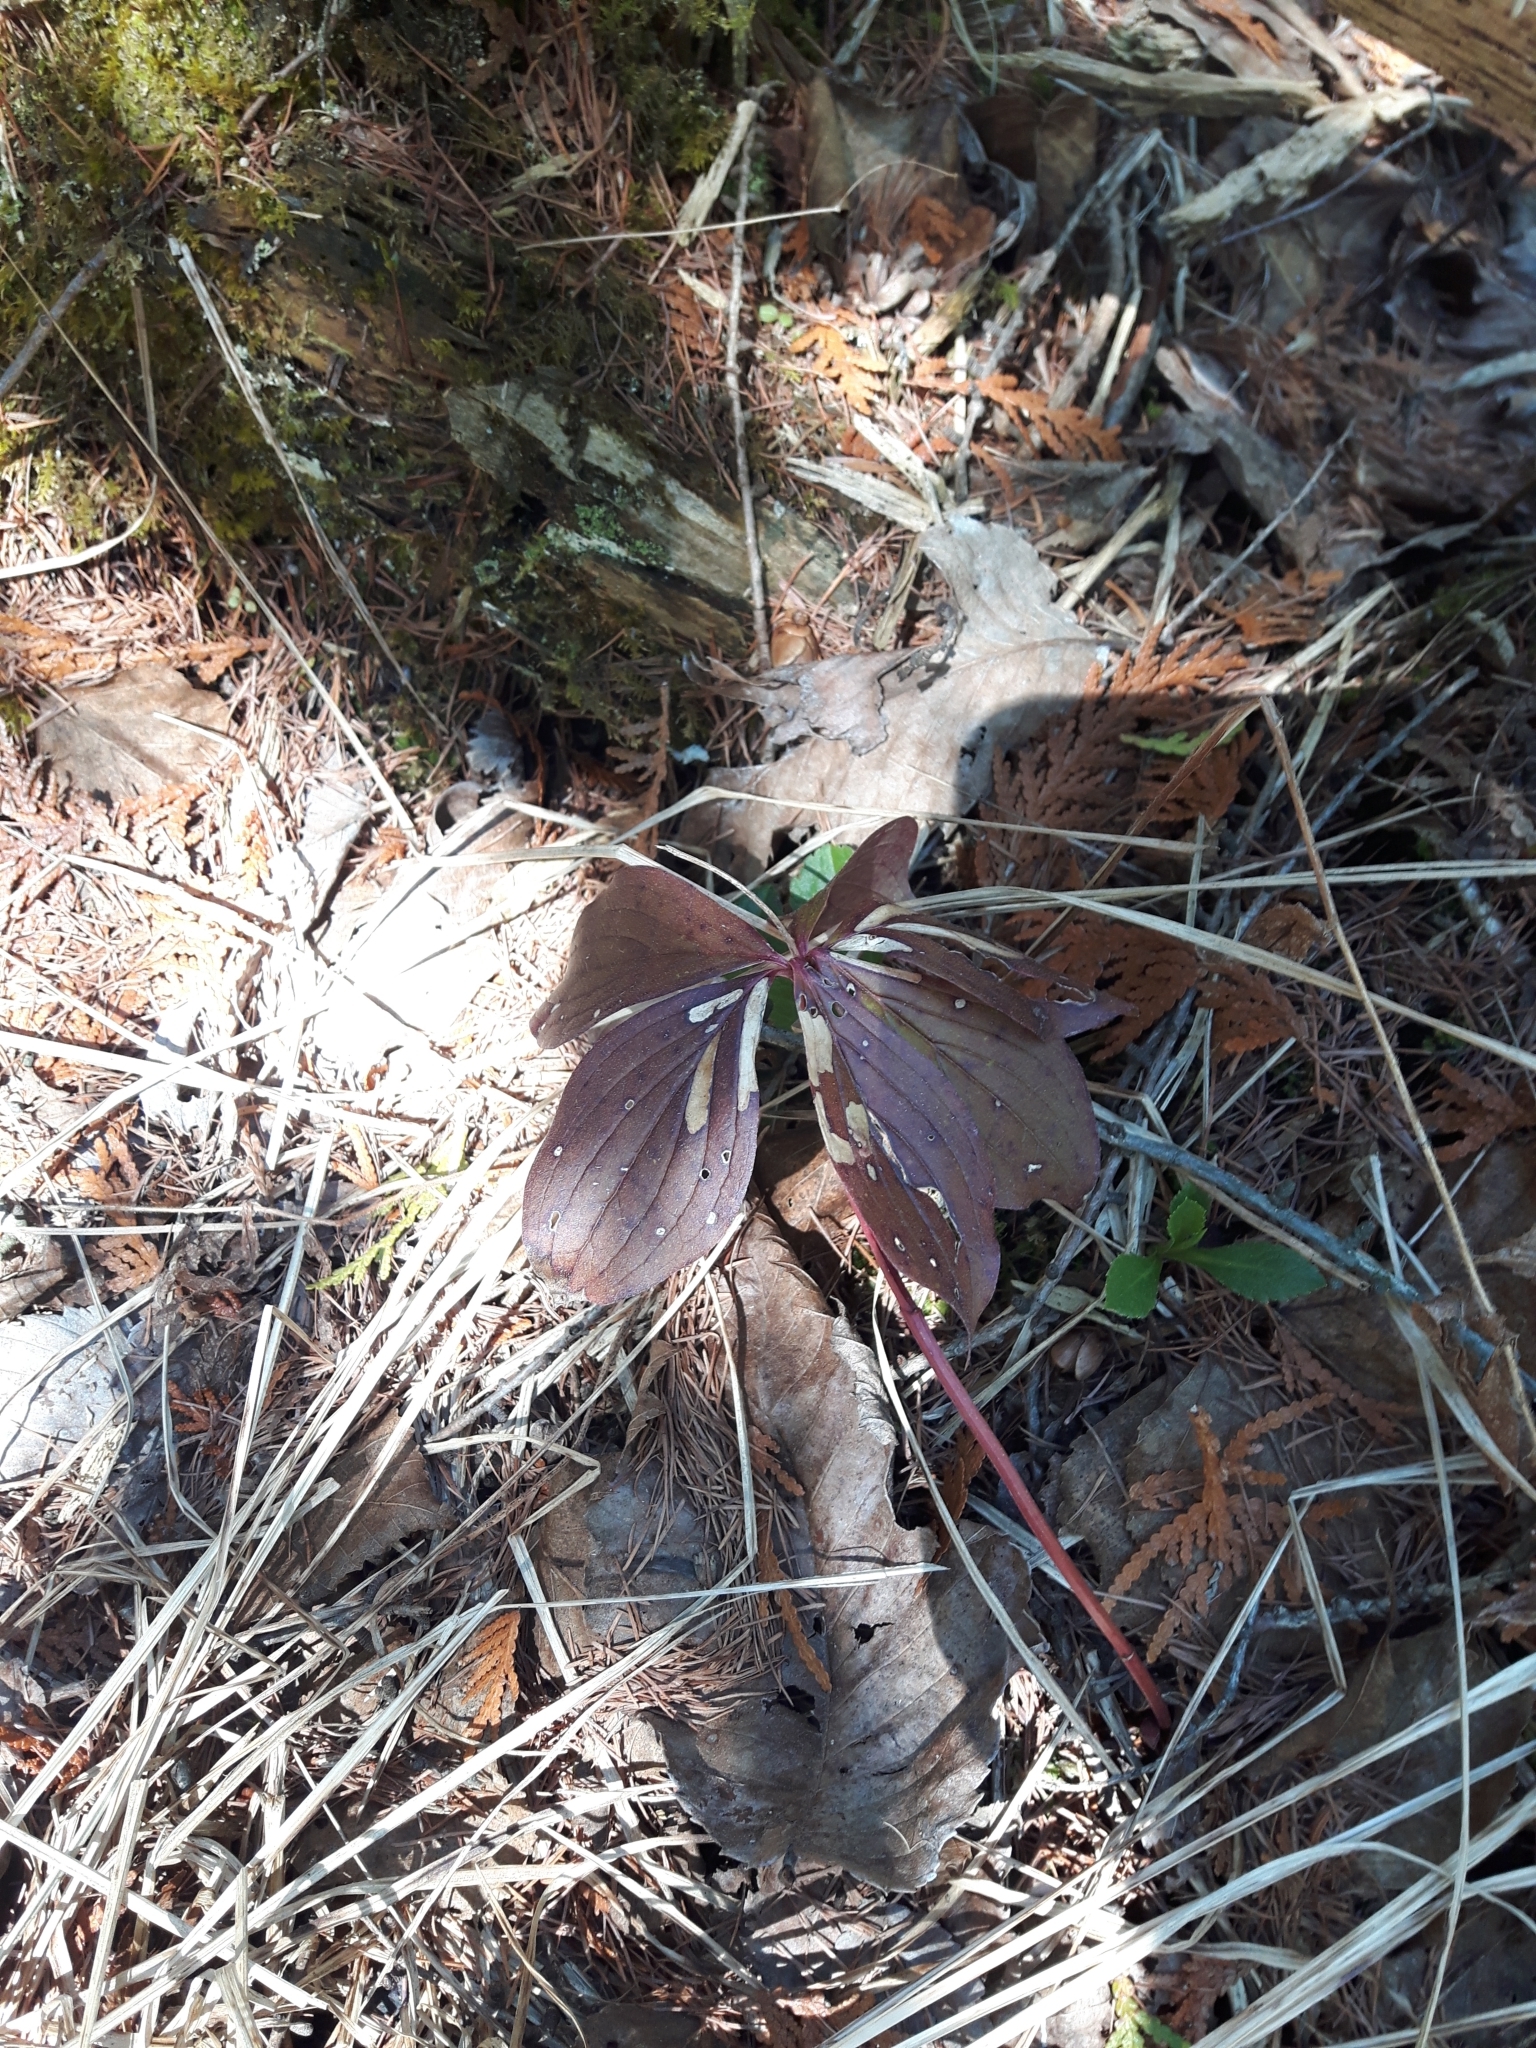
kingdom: Plantae
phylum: Tracheophyta
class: Magnoliopsida
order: Cornales
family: Cornaceae
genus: Cornus
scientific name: Cornus canadensis
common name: Creeping dogwood
